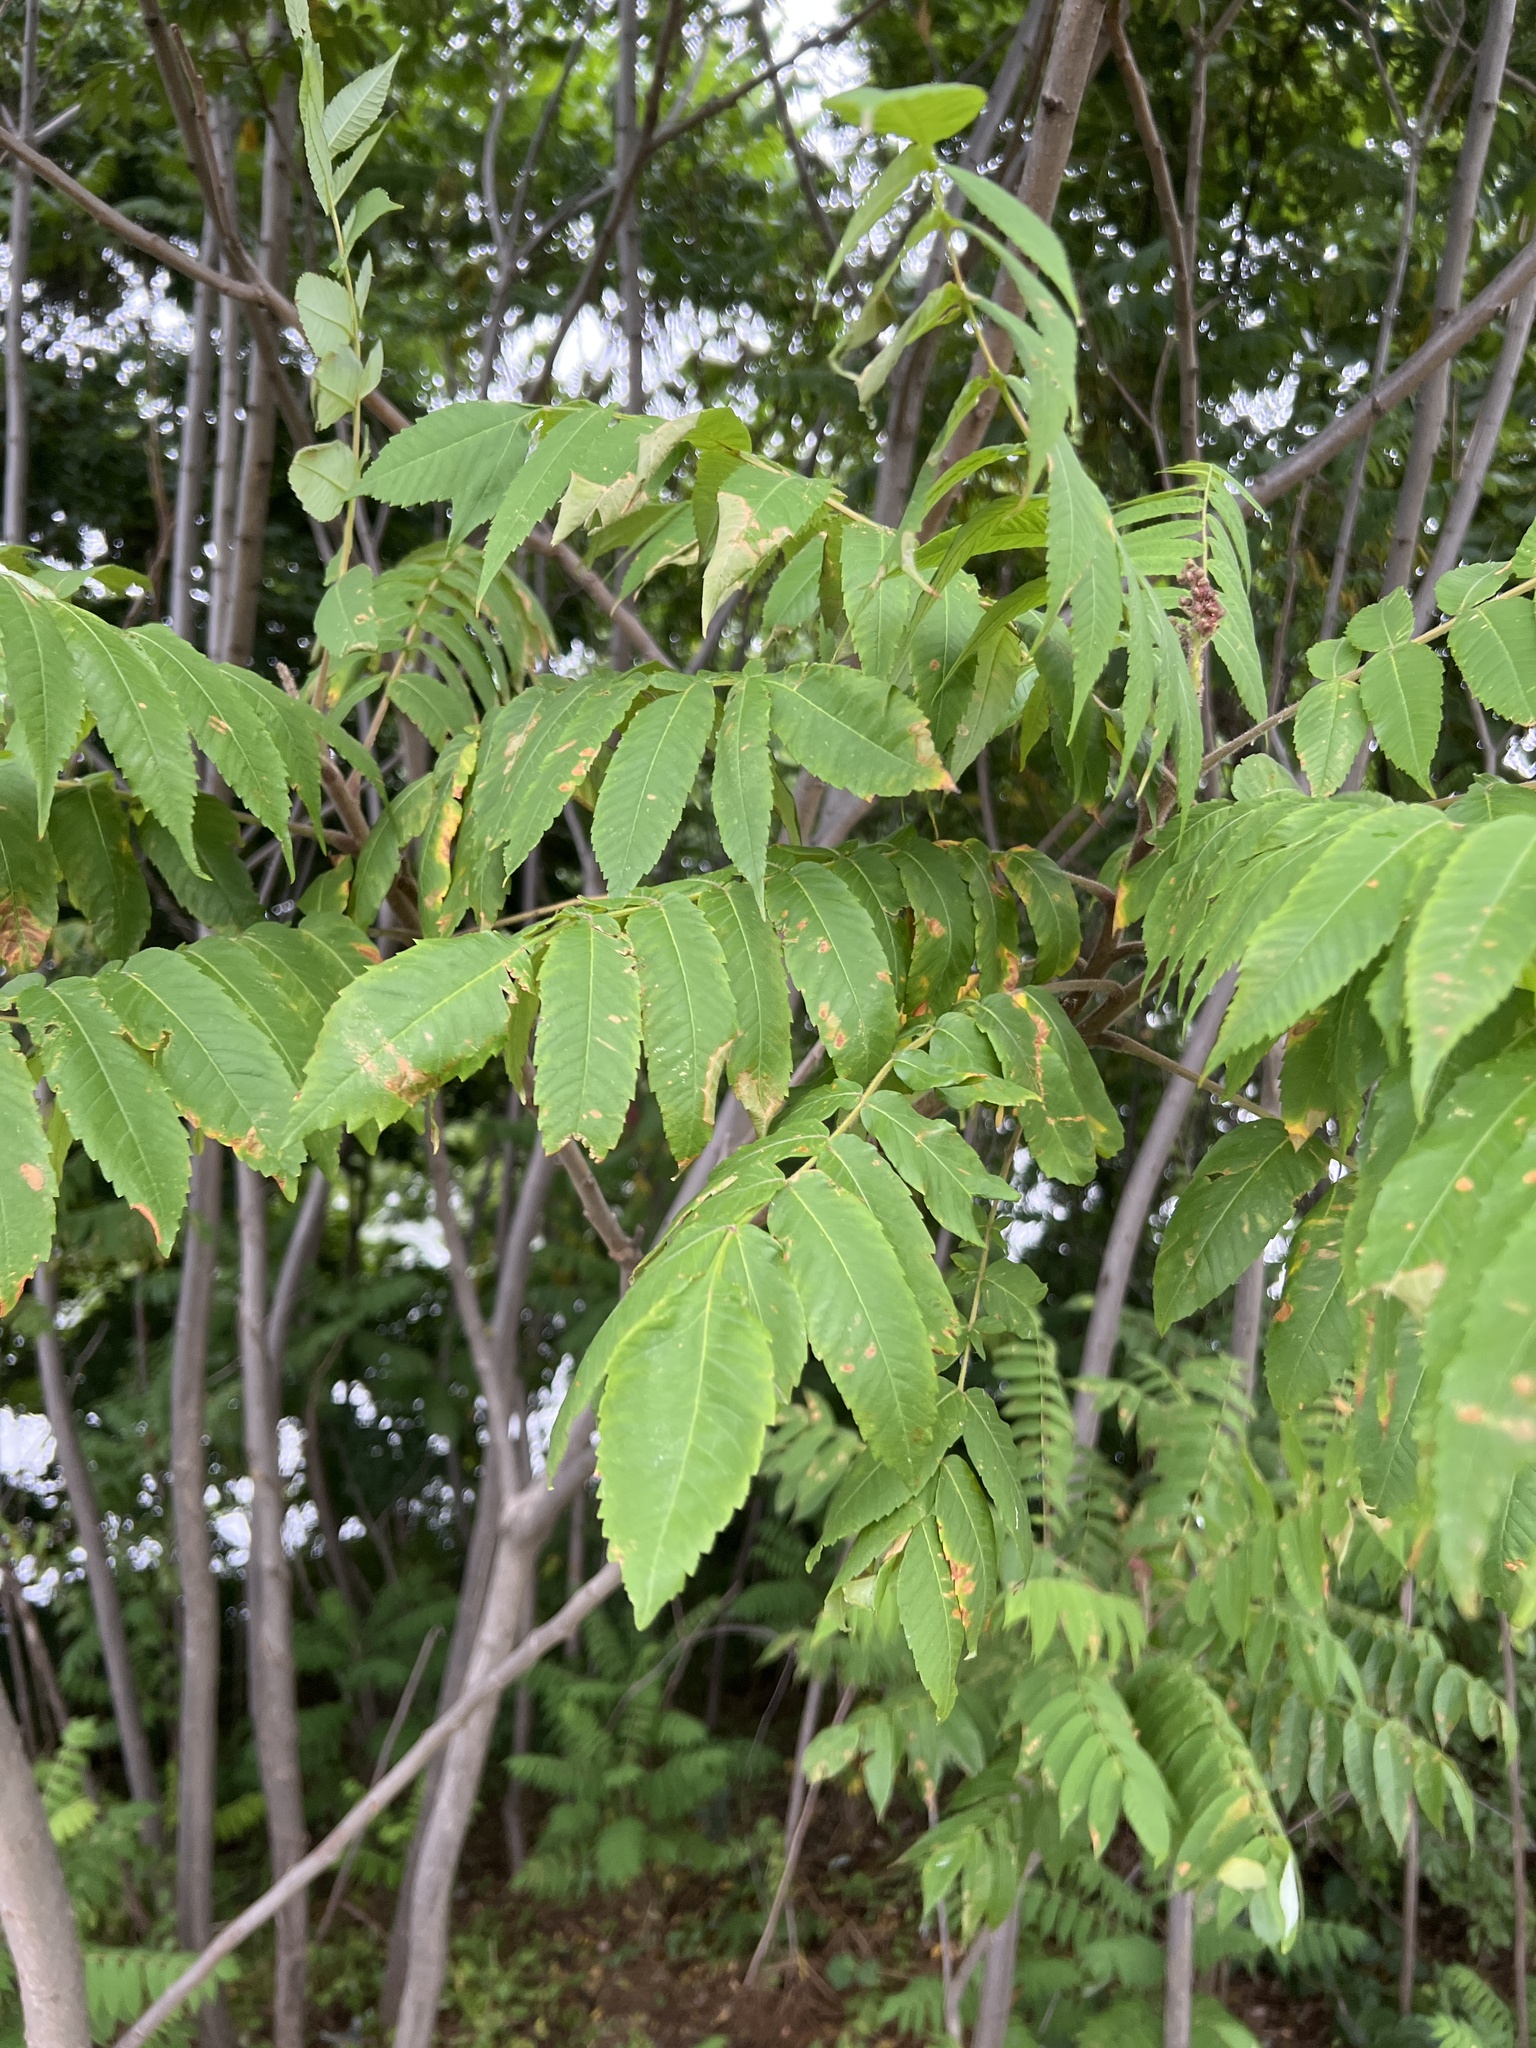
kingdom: Plantae
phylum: Tracheophyta
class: Magnoliopsida
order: Sapindales
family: Anacardiaceae
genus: Rhus
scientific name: Rhus typhina
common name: Staghorn sumac
